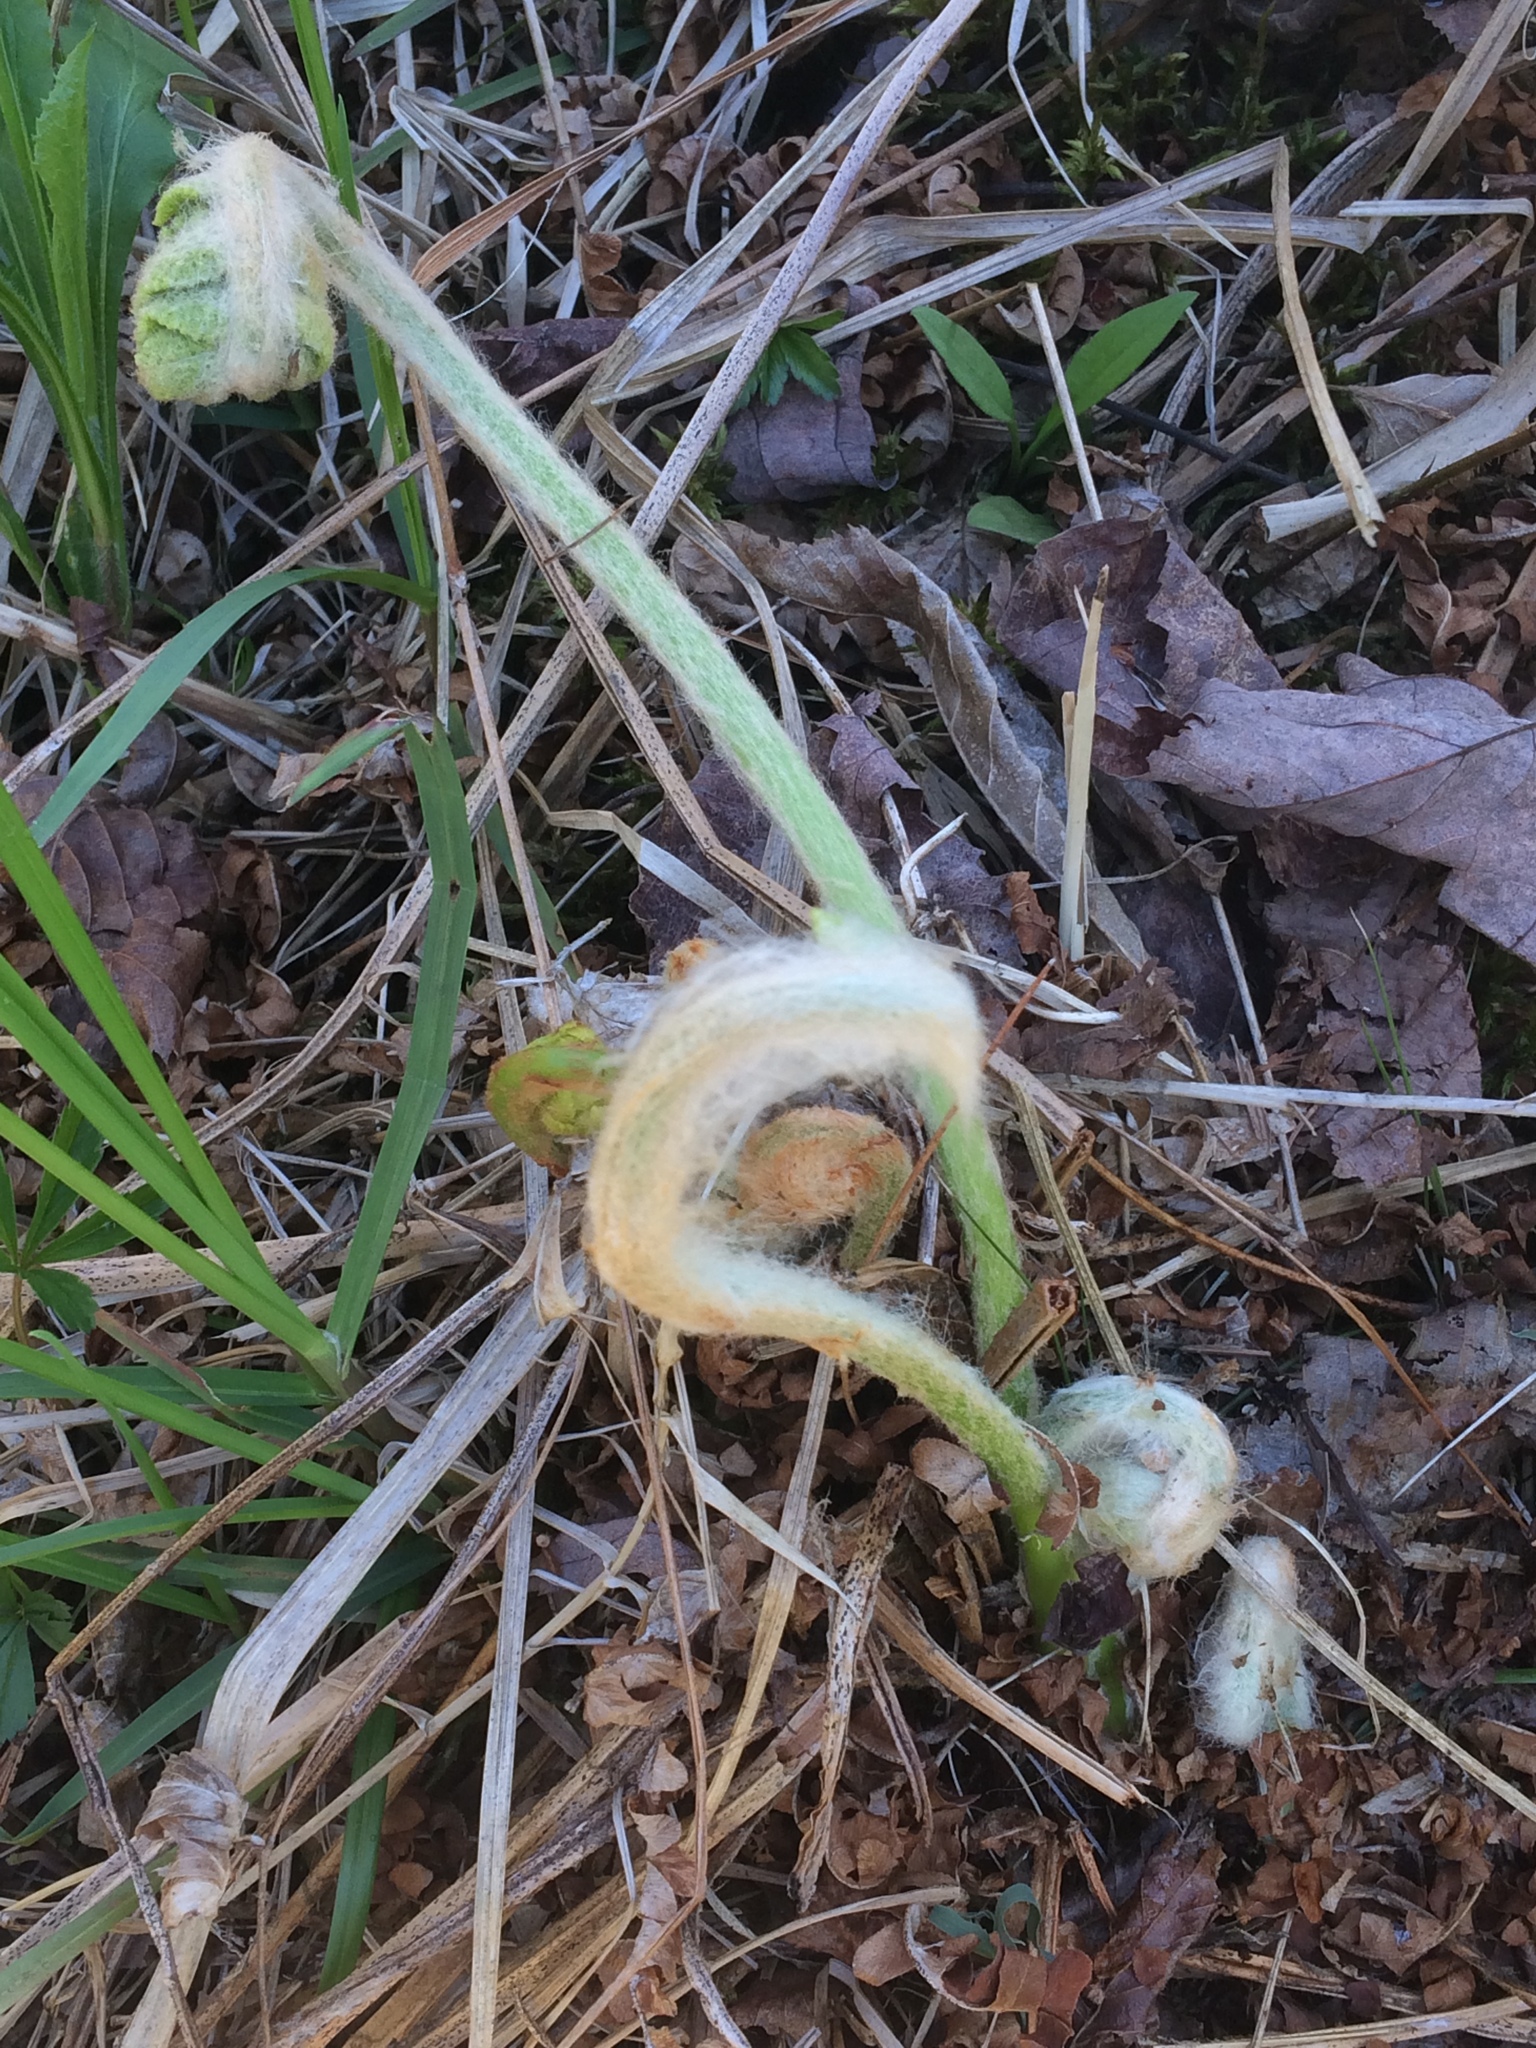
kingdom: Plantae
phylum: Tracheophyta
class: Polypodiopsida
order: Osmundales
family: Osmundaceae
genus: Osmundastrum
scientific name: Osmundastrum cinnamomeum
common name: Cinnamon fern
